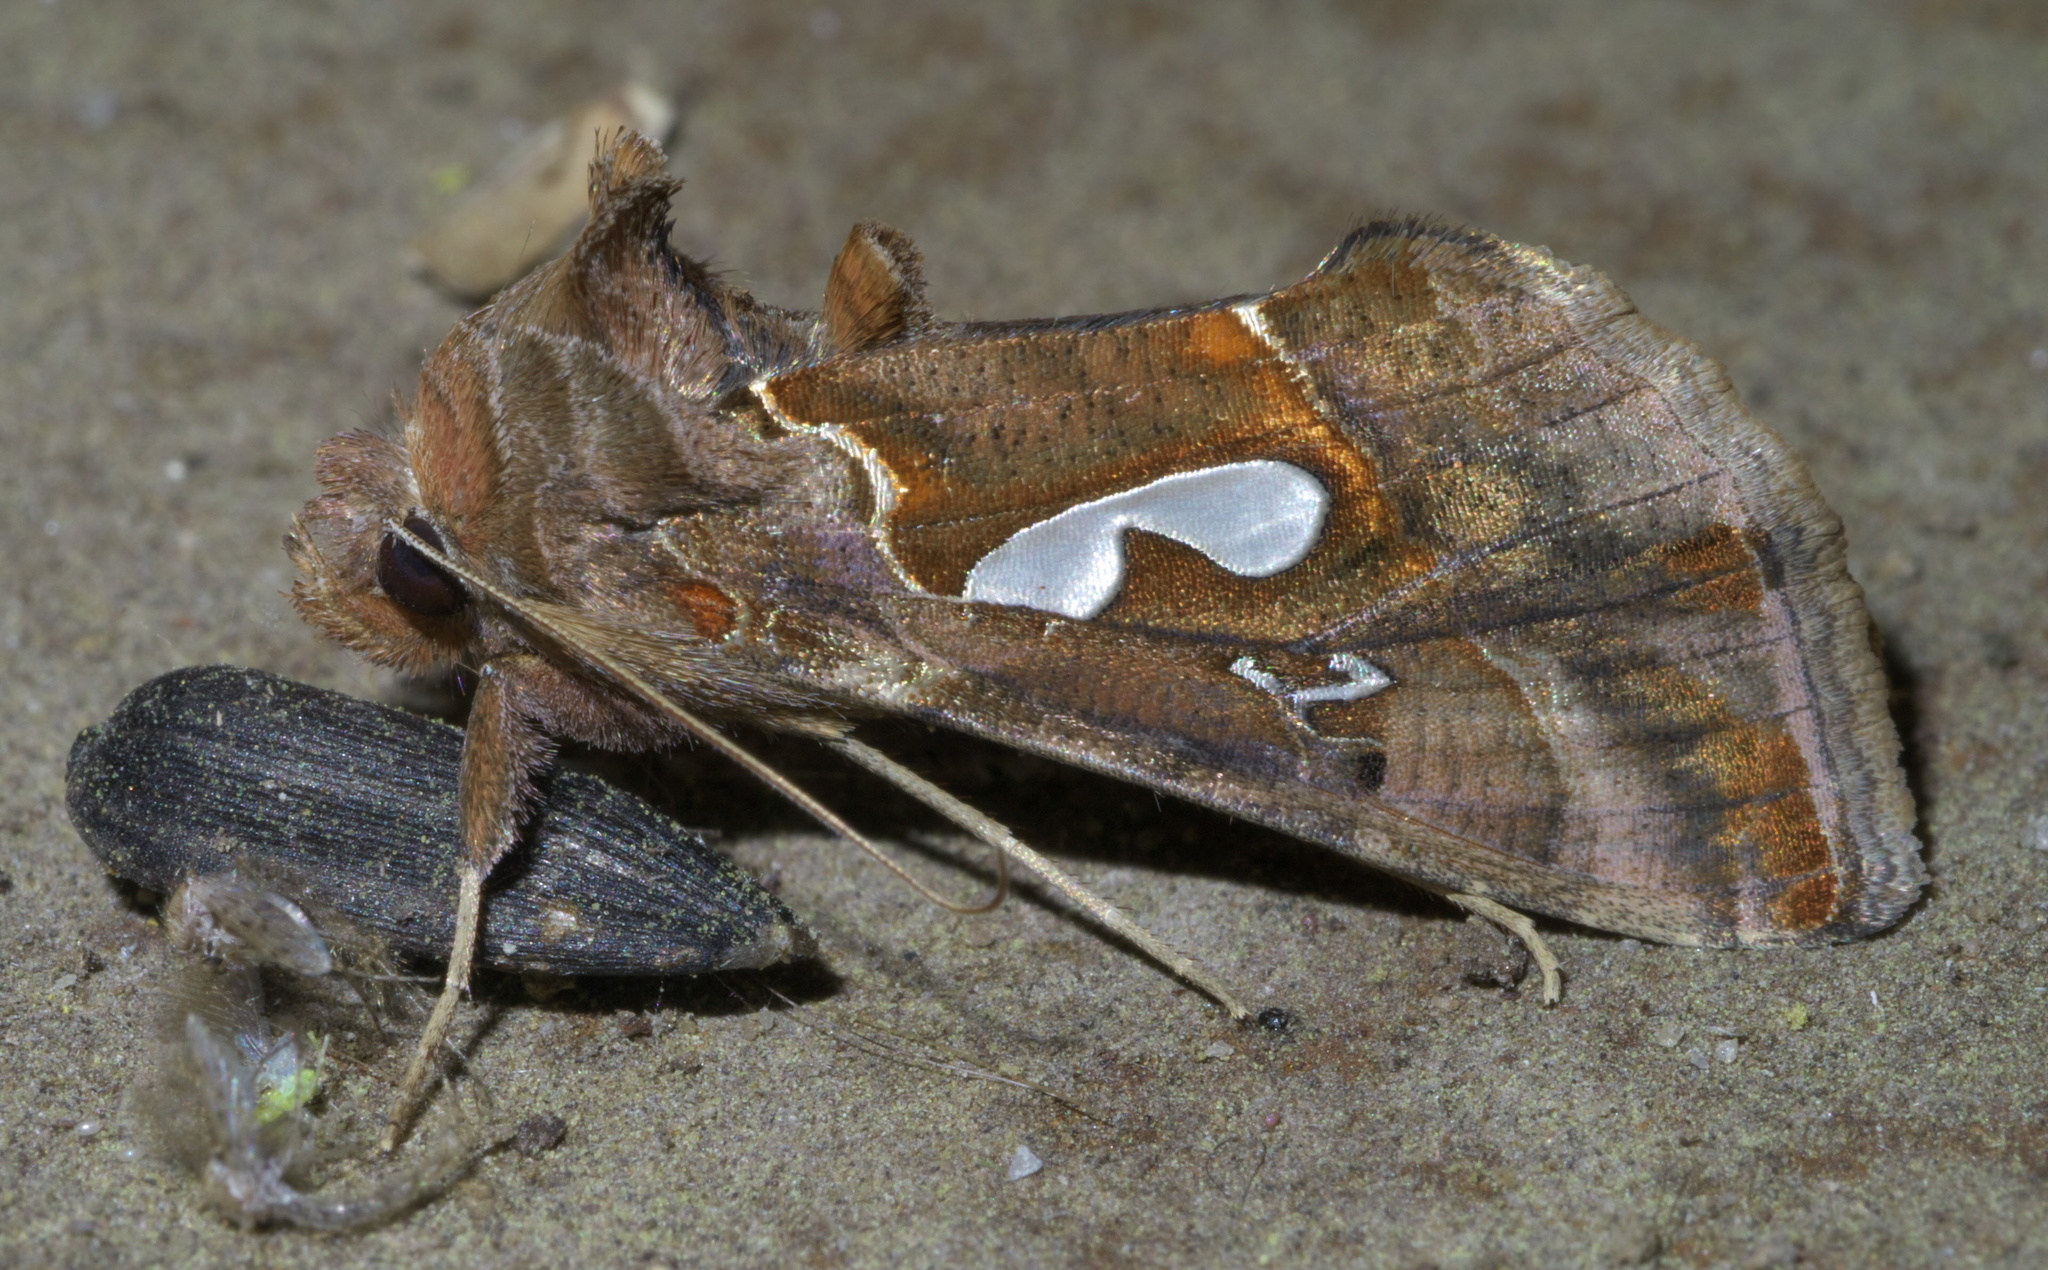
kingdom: Animalia
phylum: Arthropoda
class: Insecta
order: Lepidoptera
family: Noctuidae
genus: Megalographa
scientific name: Megalographa biloba
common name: Cutworm
